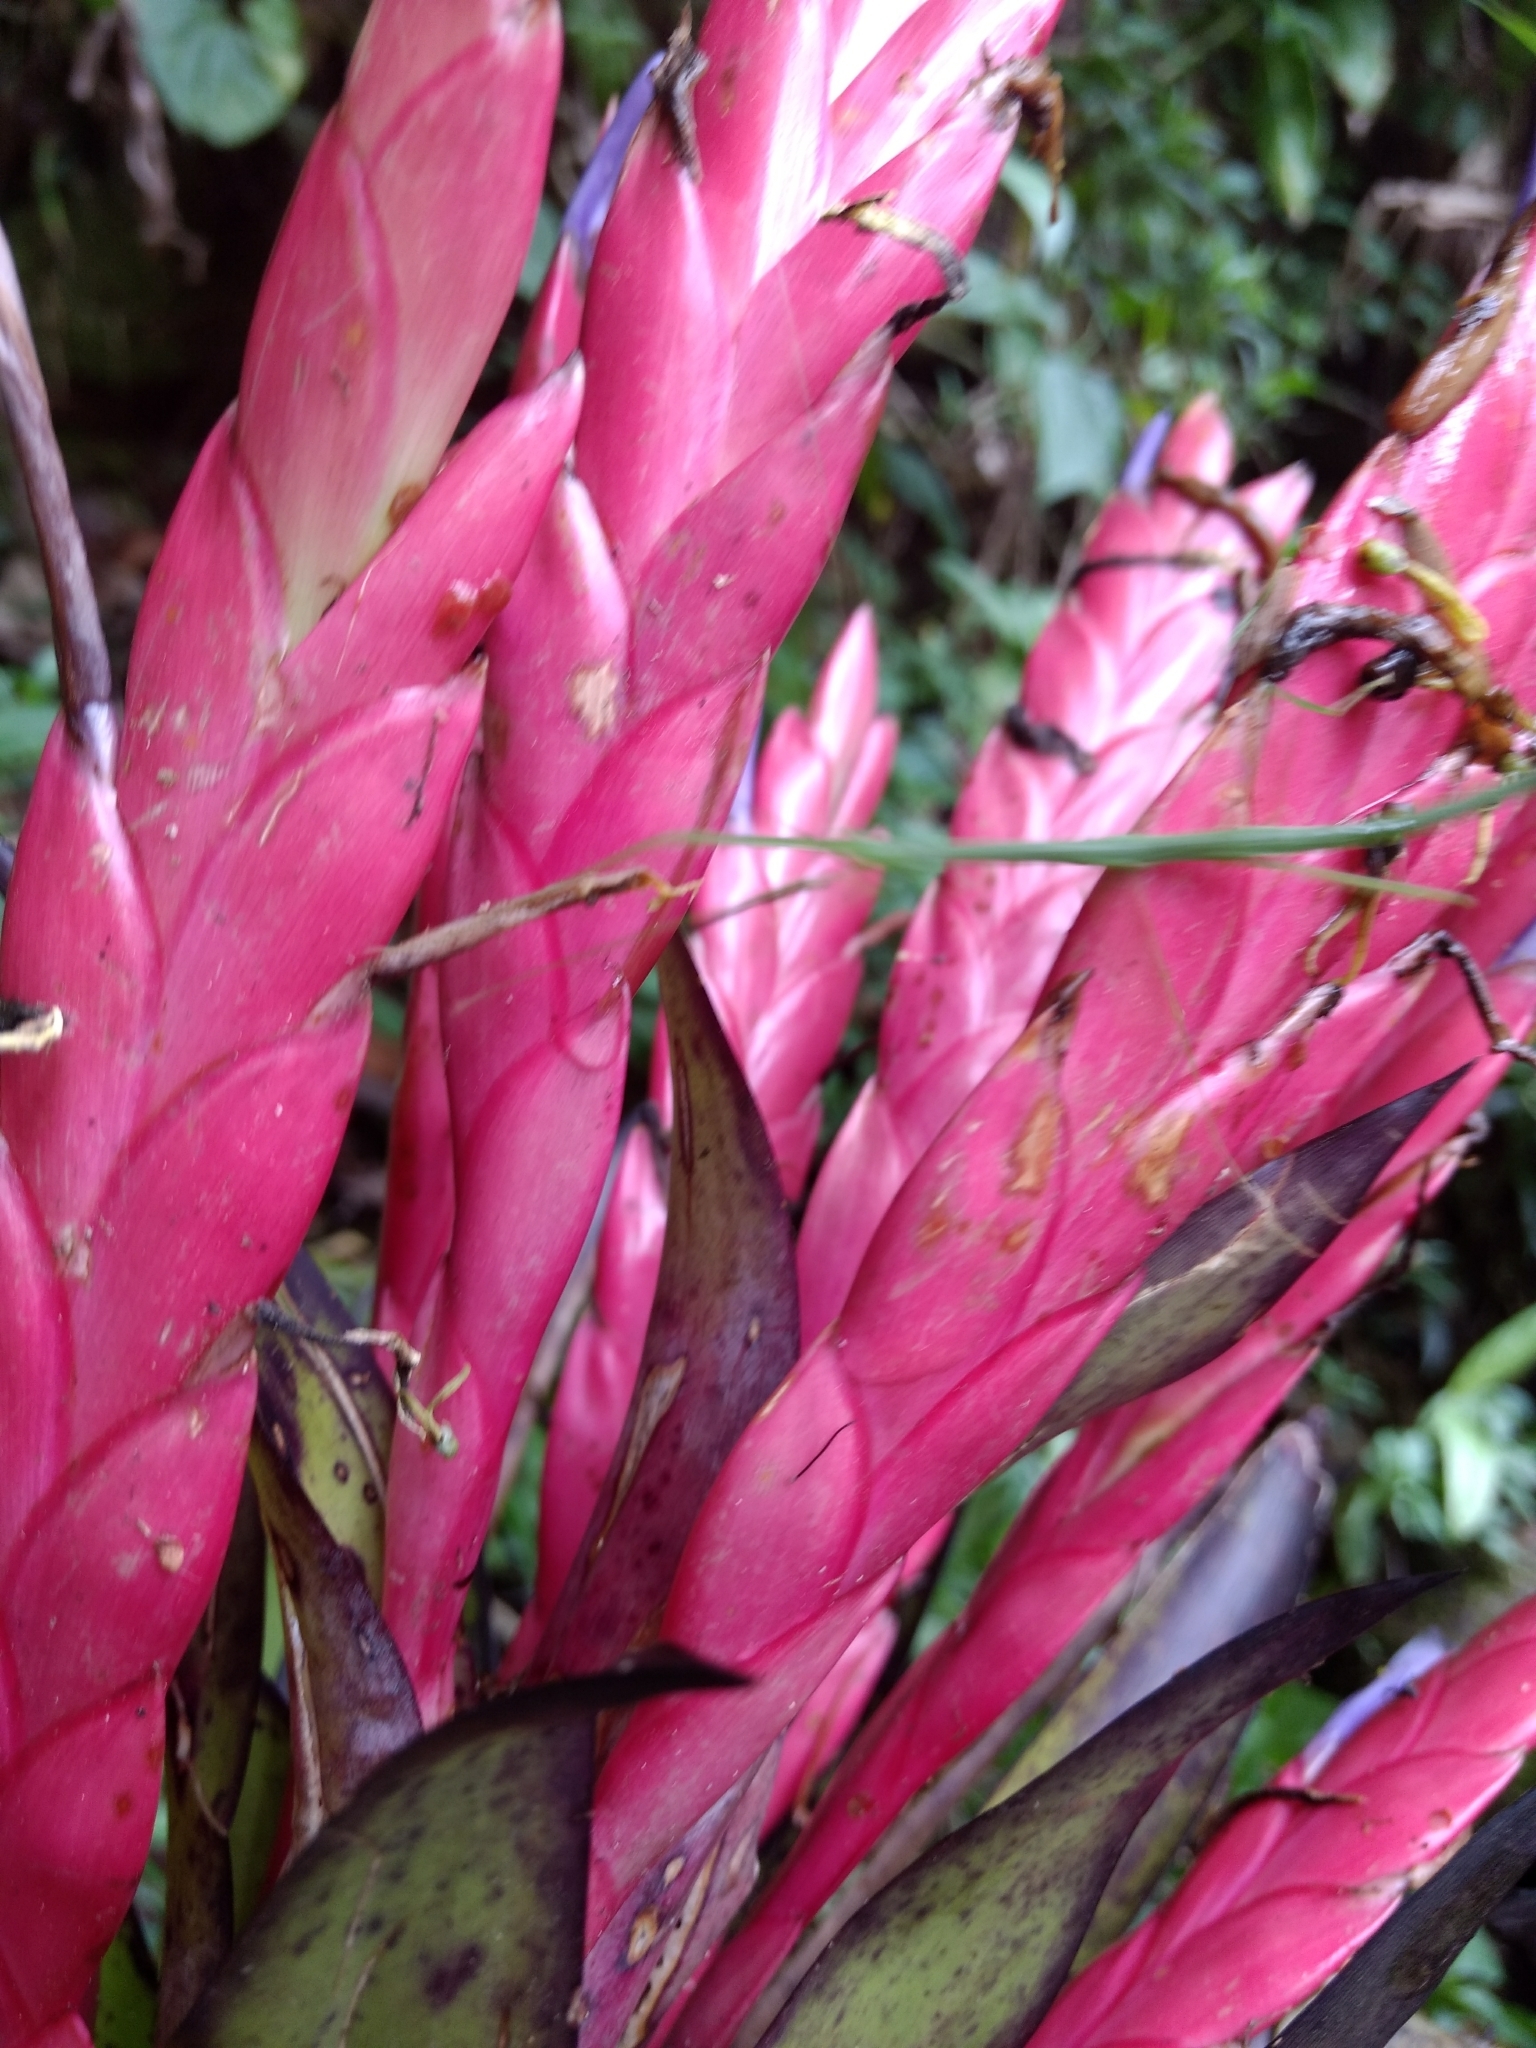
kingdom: Plantae
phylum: Tracheophyta
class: Liliopsida
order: Poales
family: Bromeliaceae
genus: Tillandsia
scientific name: Tillandsia deppeana
